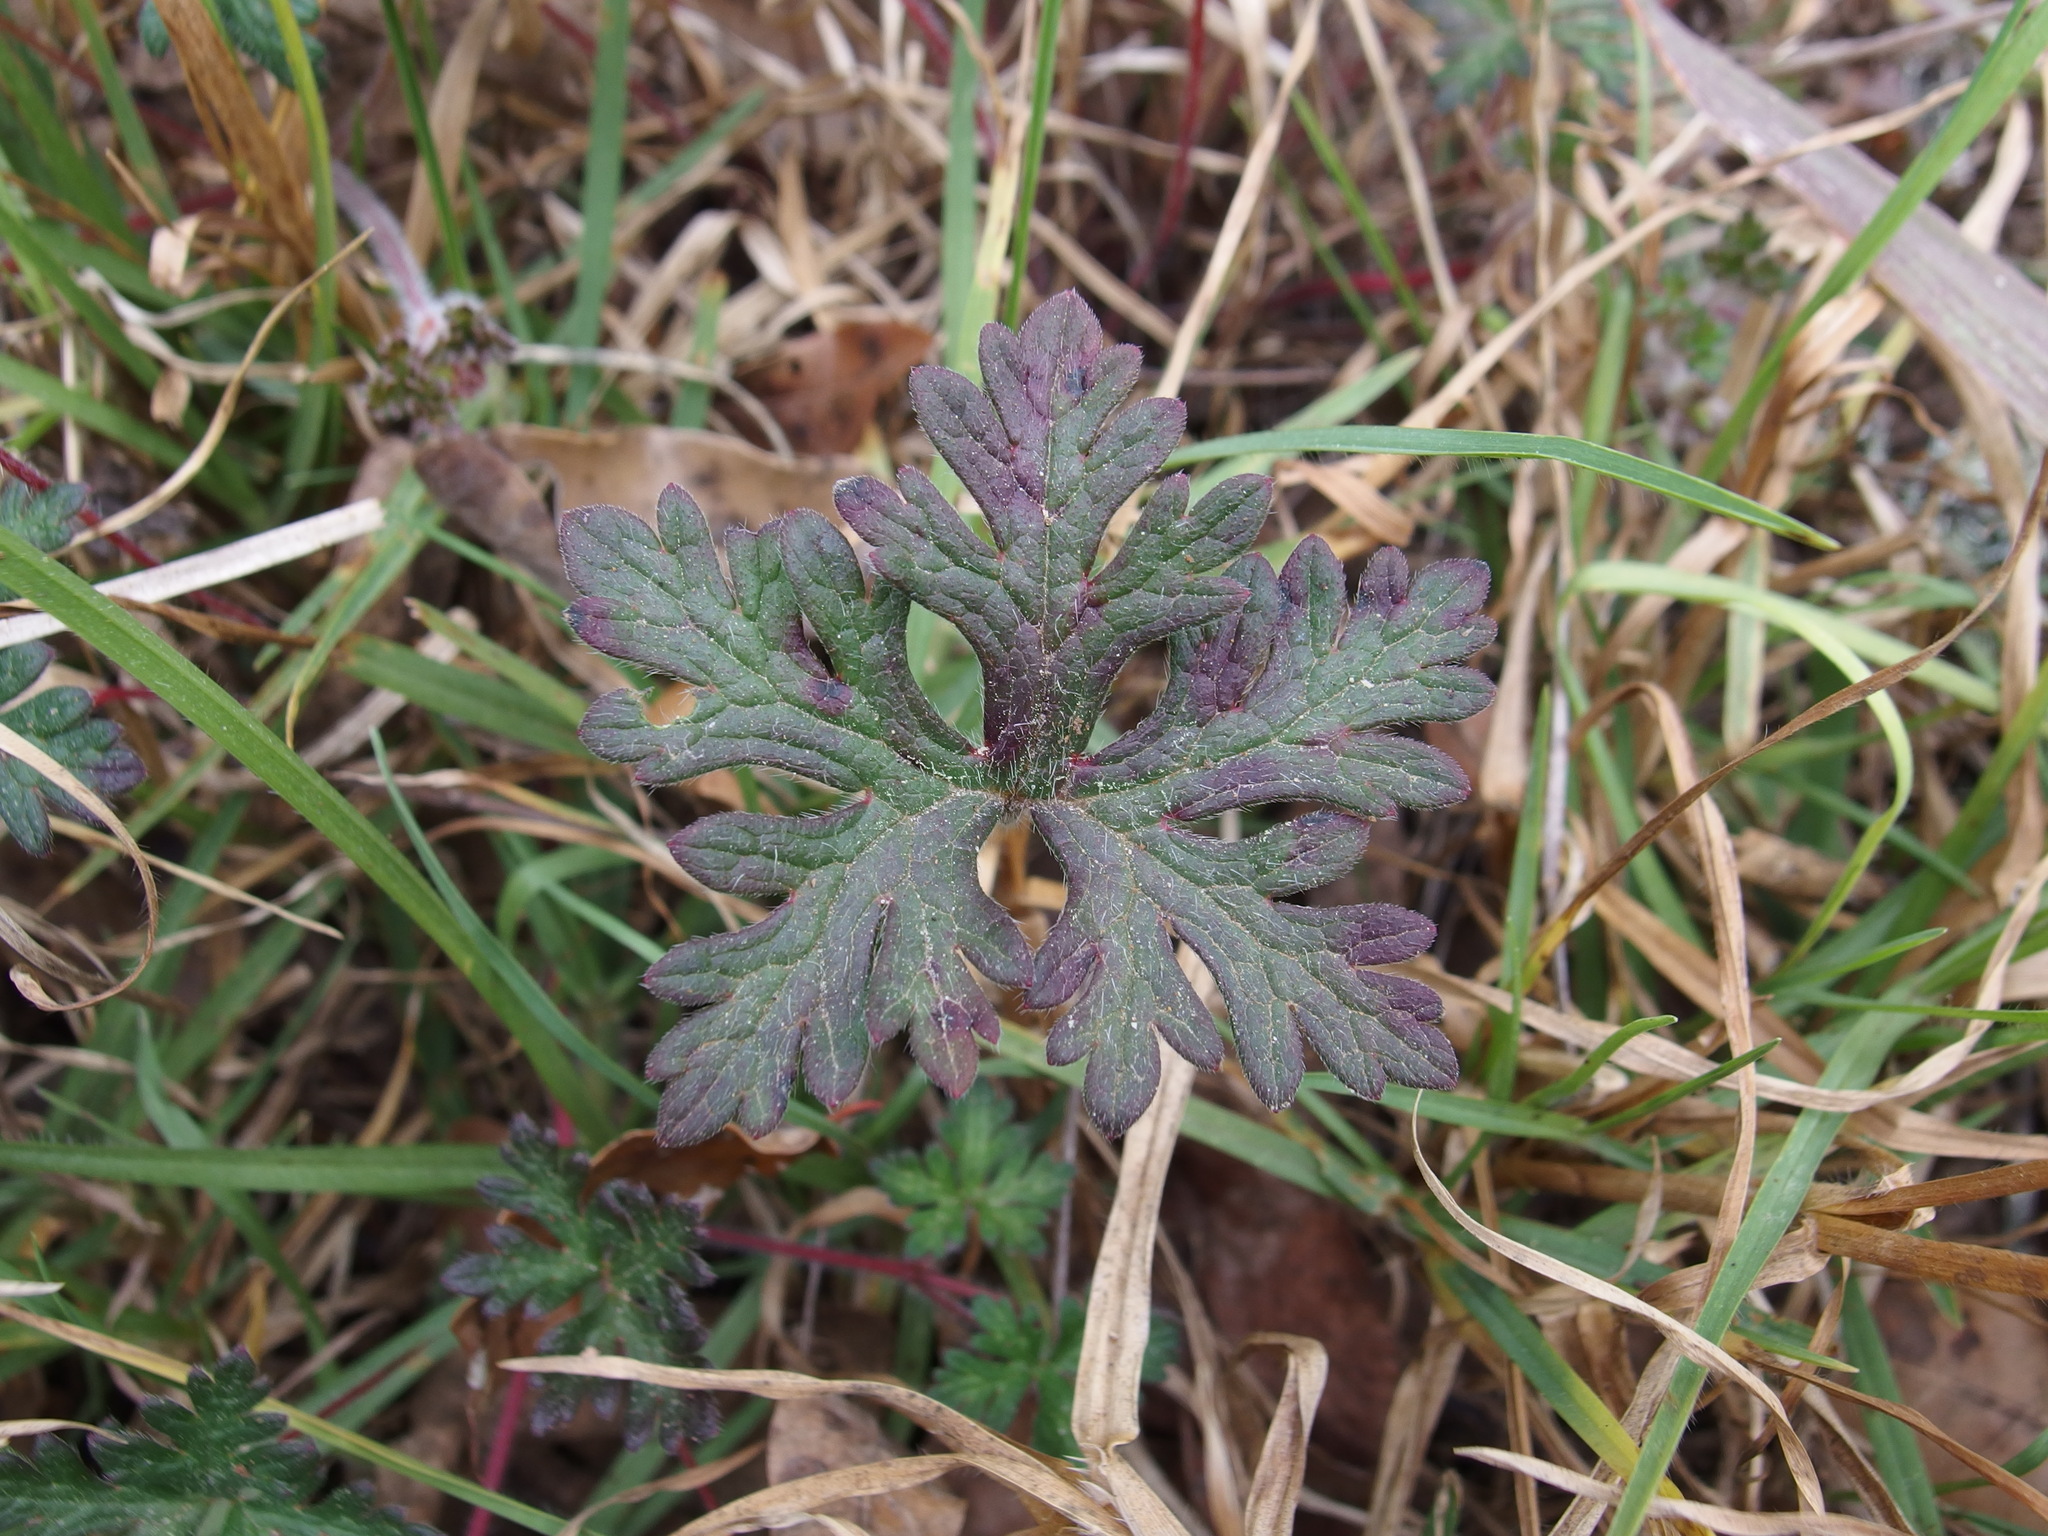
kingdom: Plantae
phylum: Tracheophyta
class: Magnoliopsida
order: Geraniales
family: Geraniaceae
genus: Geranium
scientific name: Geranium goldmanii
